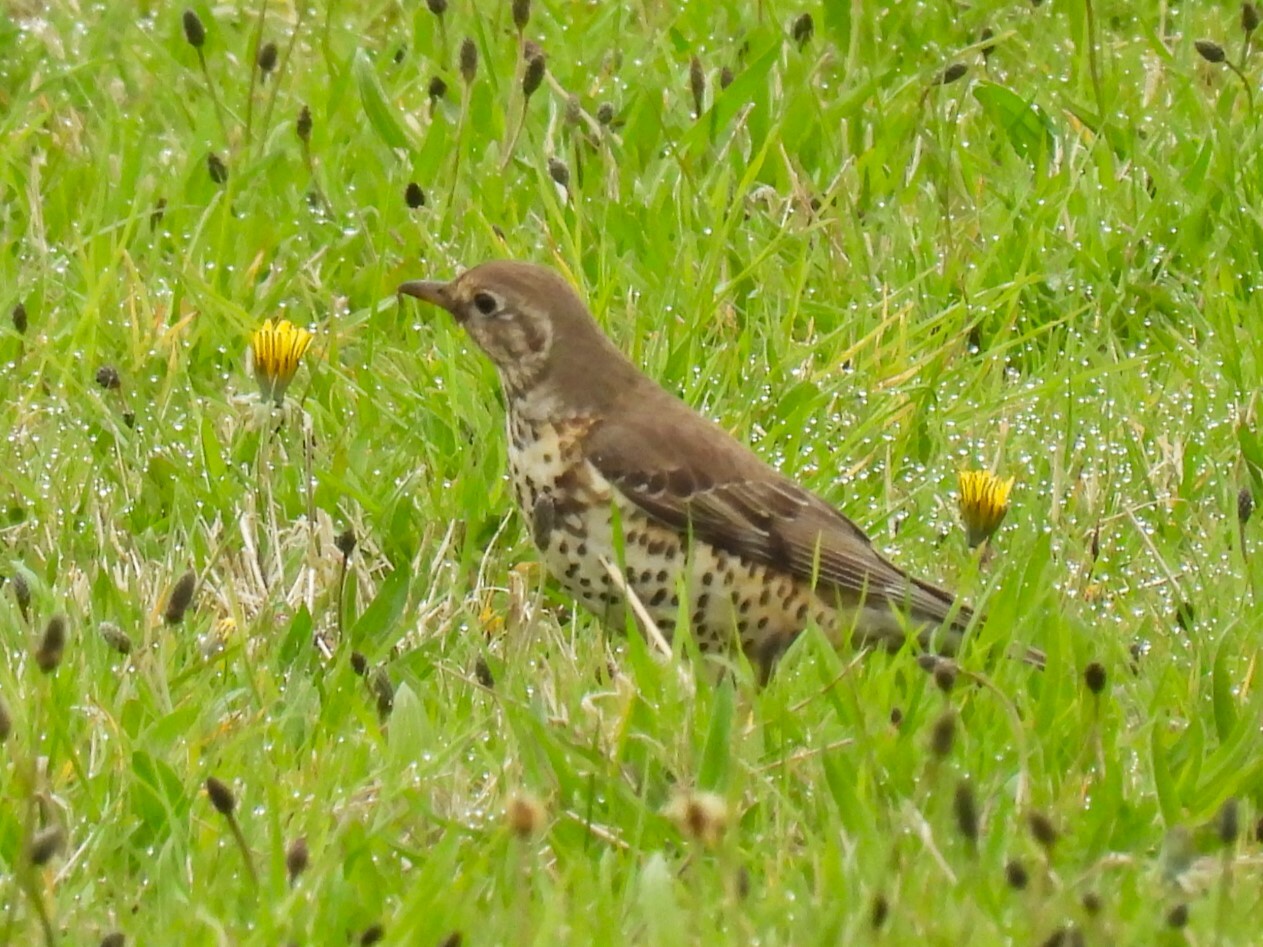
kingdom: Animalia
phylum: Chordata
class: Aves
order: Passeriformes
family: Turdidae
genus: Turdus
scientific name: Turdus viscivorus
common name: Mistle thrush
